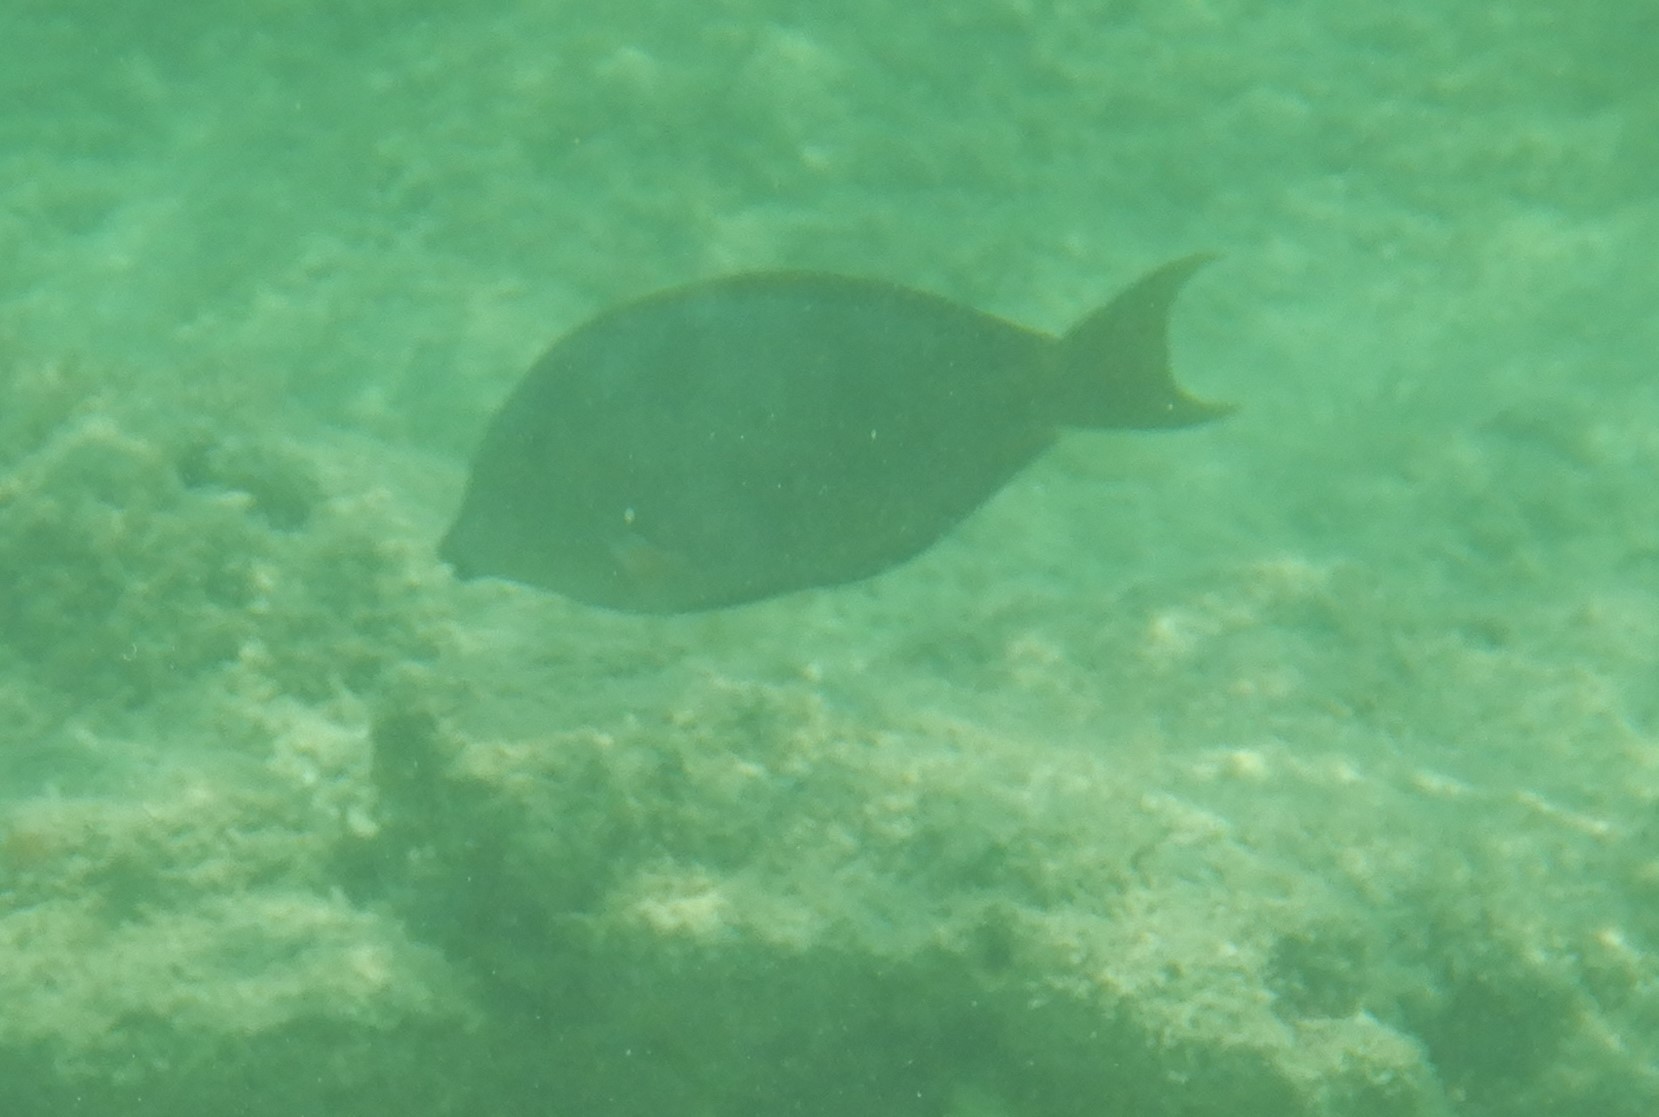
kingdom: Animalia
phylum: Chordata
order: Perciformes
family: Acanthuridae
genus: Acanthurus
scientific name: Acanthurus nigrofuscus
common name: Blackspot surgeonfish
